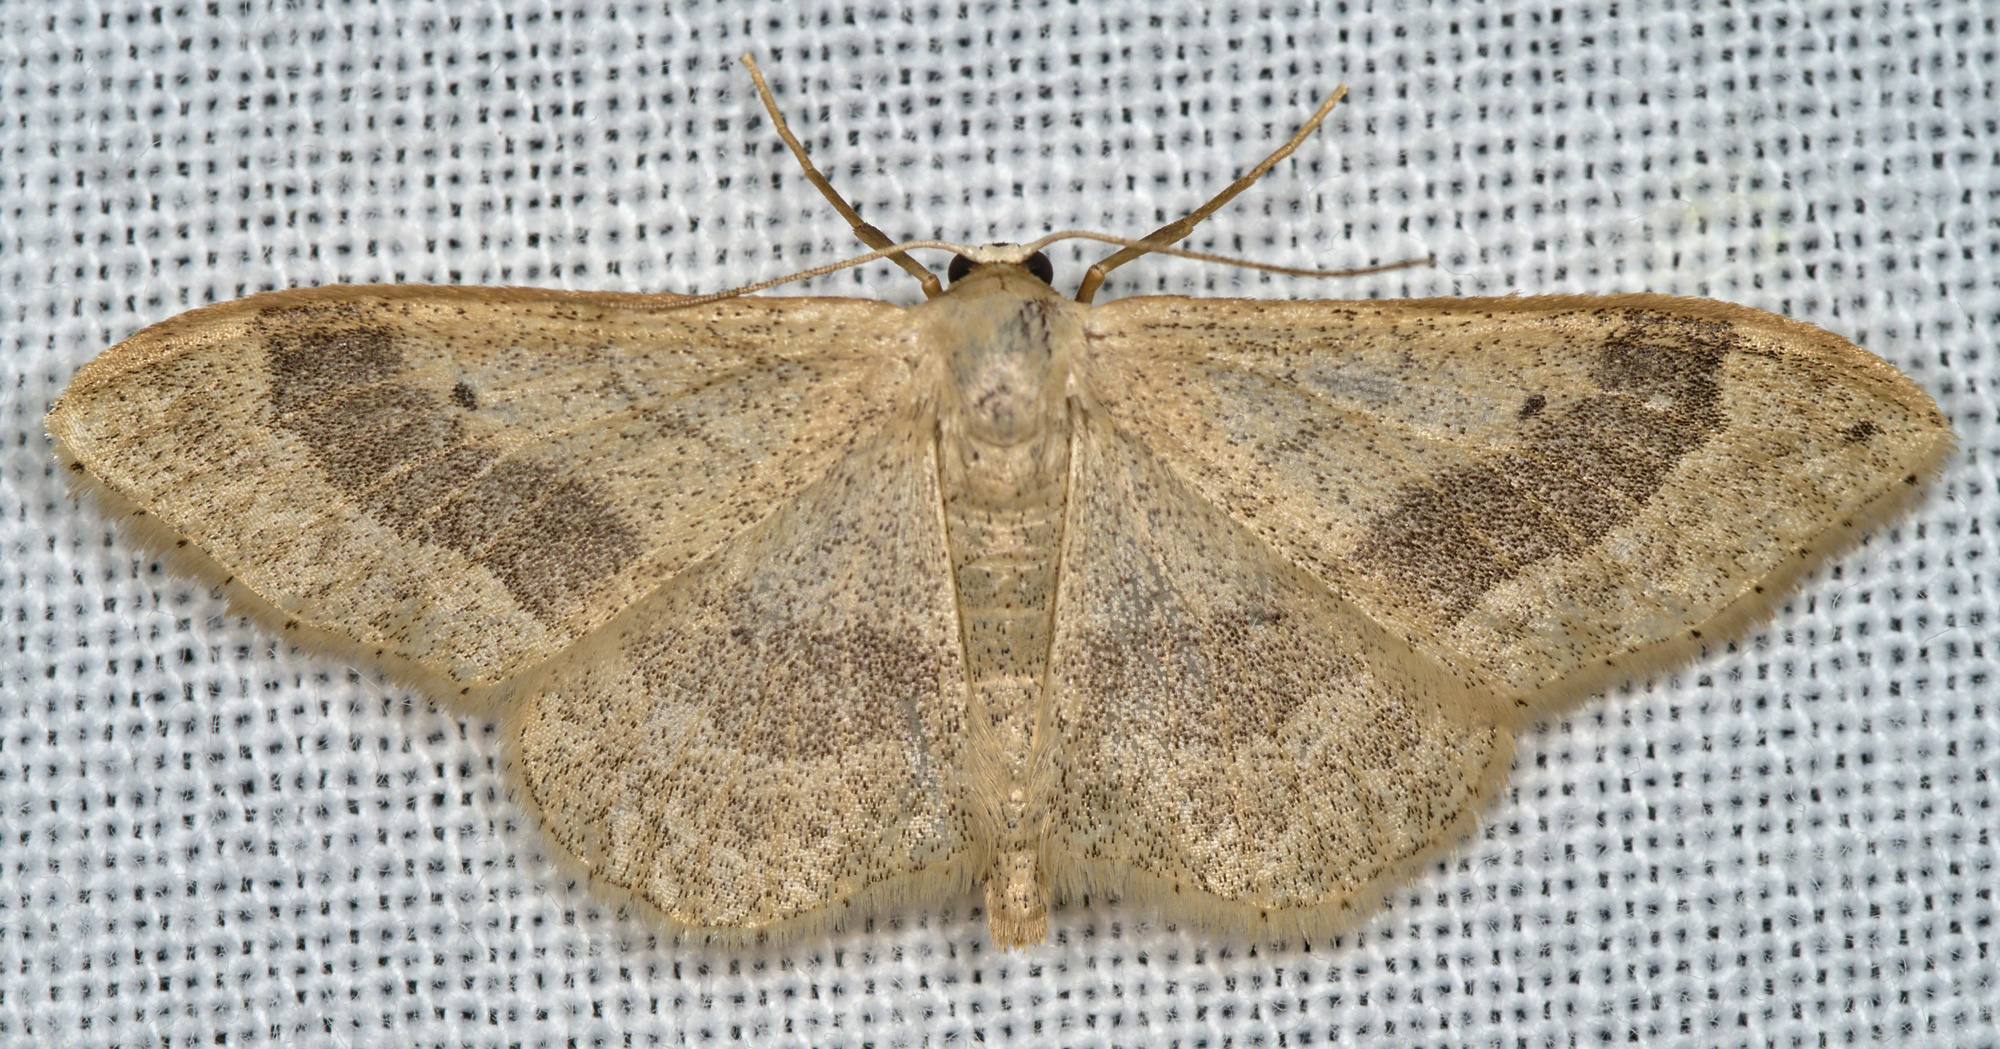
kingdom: Animalia
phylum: Arthropoda
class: Insecta
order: Lepidoptera
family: Geometridae
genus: Idaea
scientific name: Idaea aversata
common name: Riband wave
